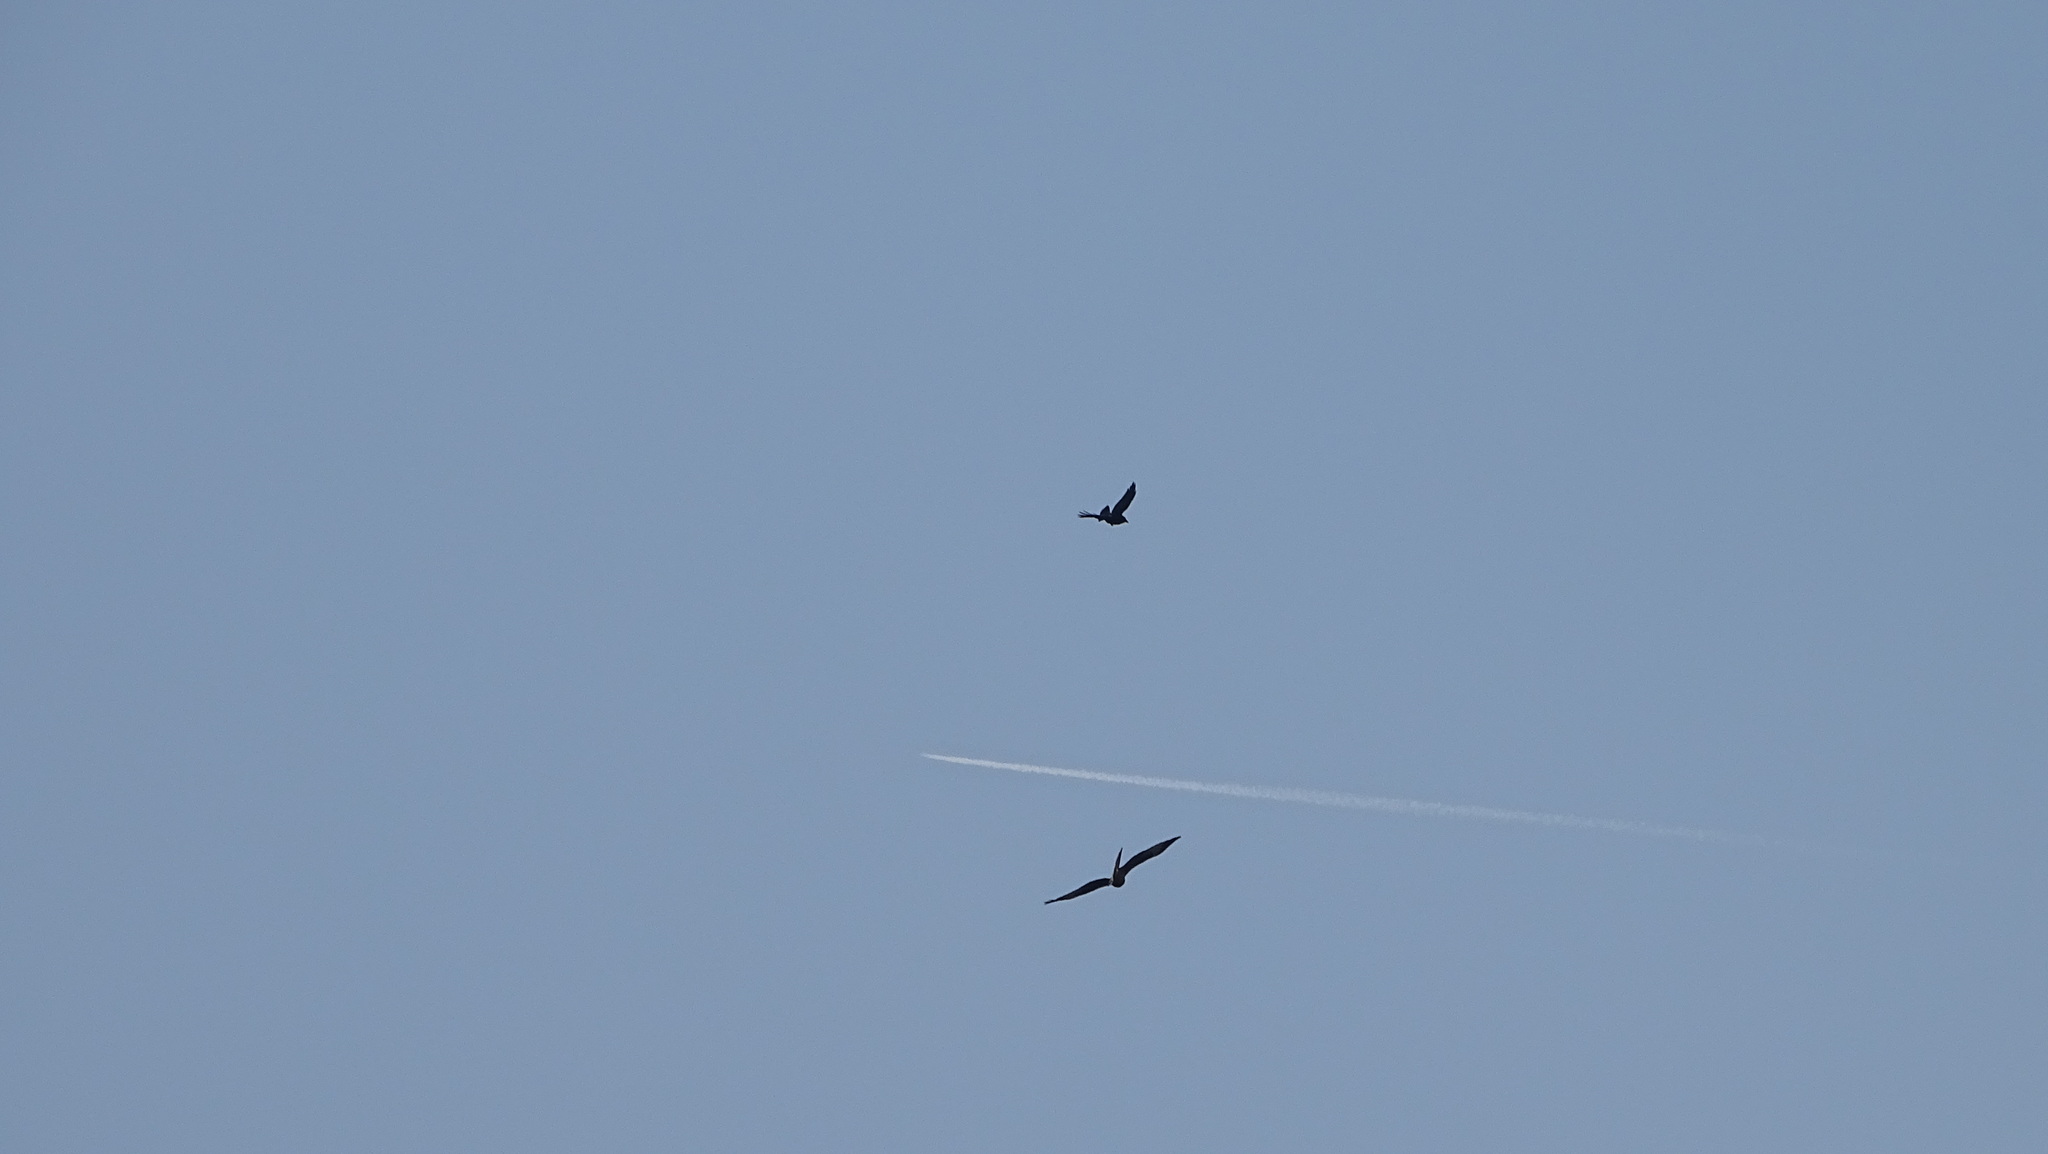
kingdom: Animalia
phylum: Chordata
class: Aves
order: Accipitriformes
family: Accipitridae
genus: Milvus
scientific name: Milvus milvus
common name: Red kite
